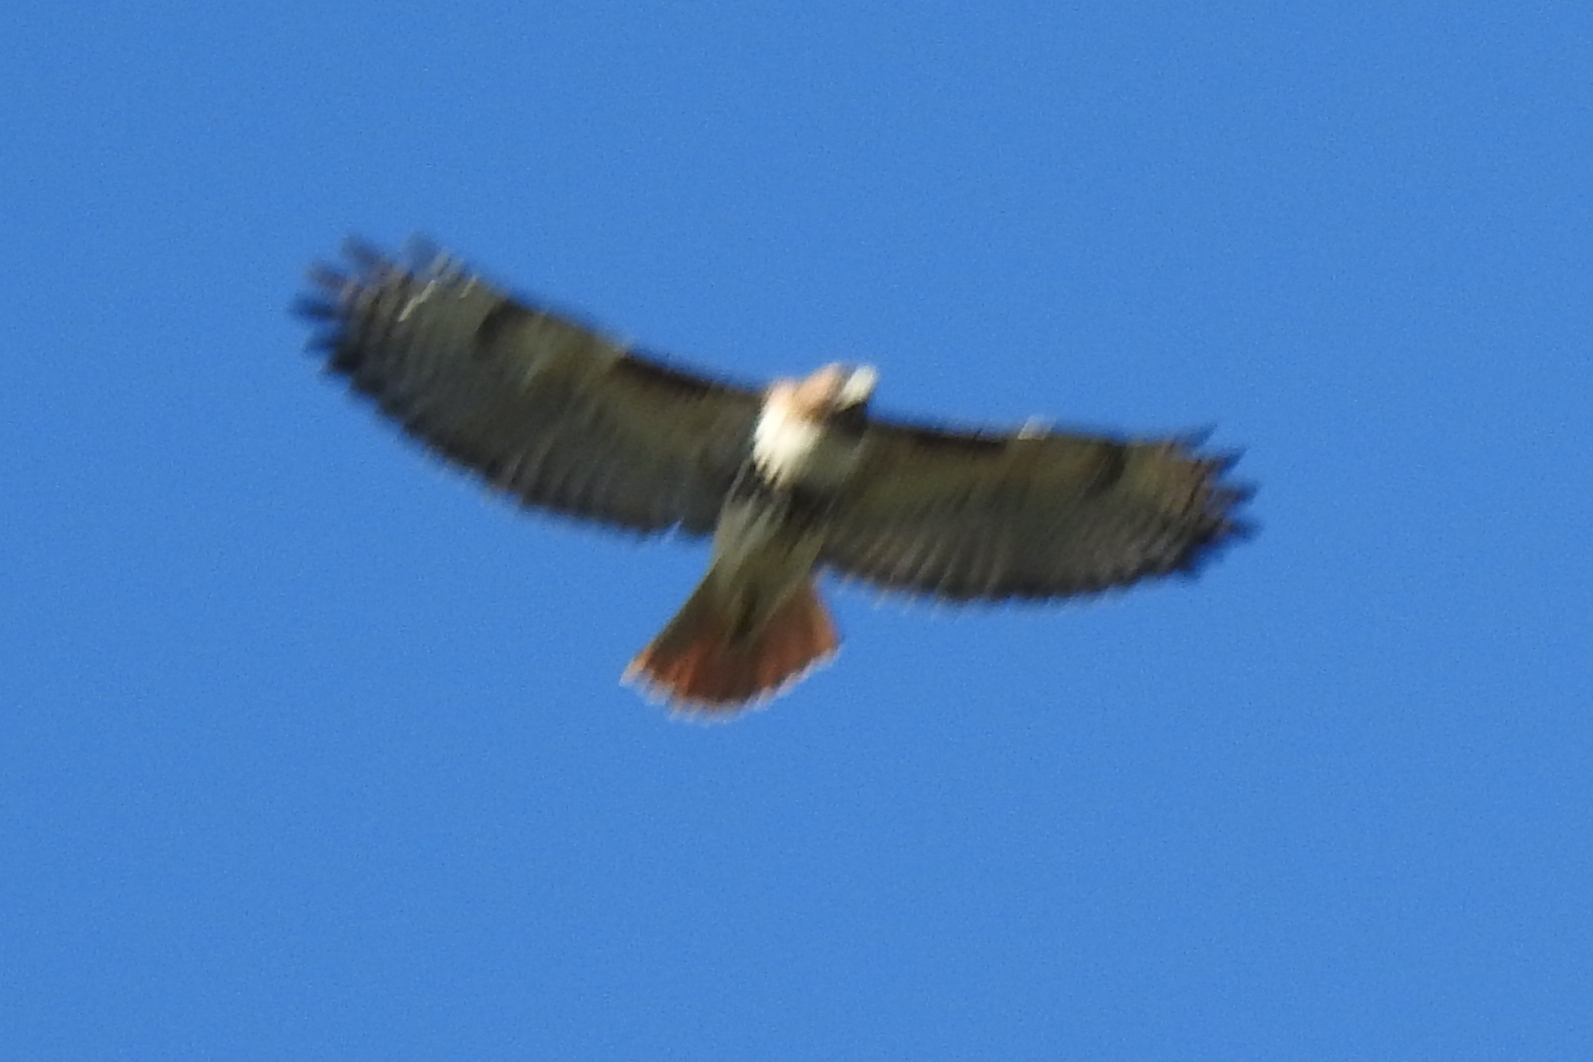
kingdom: Animalia
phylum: Chordata
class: Aves
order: Accipitriformes
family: Accipitridae
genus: Buteo
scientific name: Buteo jamaicensis
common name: Red-tailed hawk
